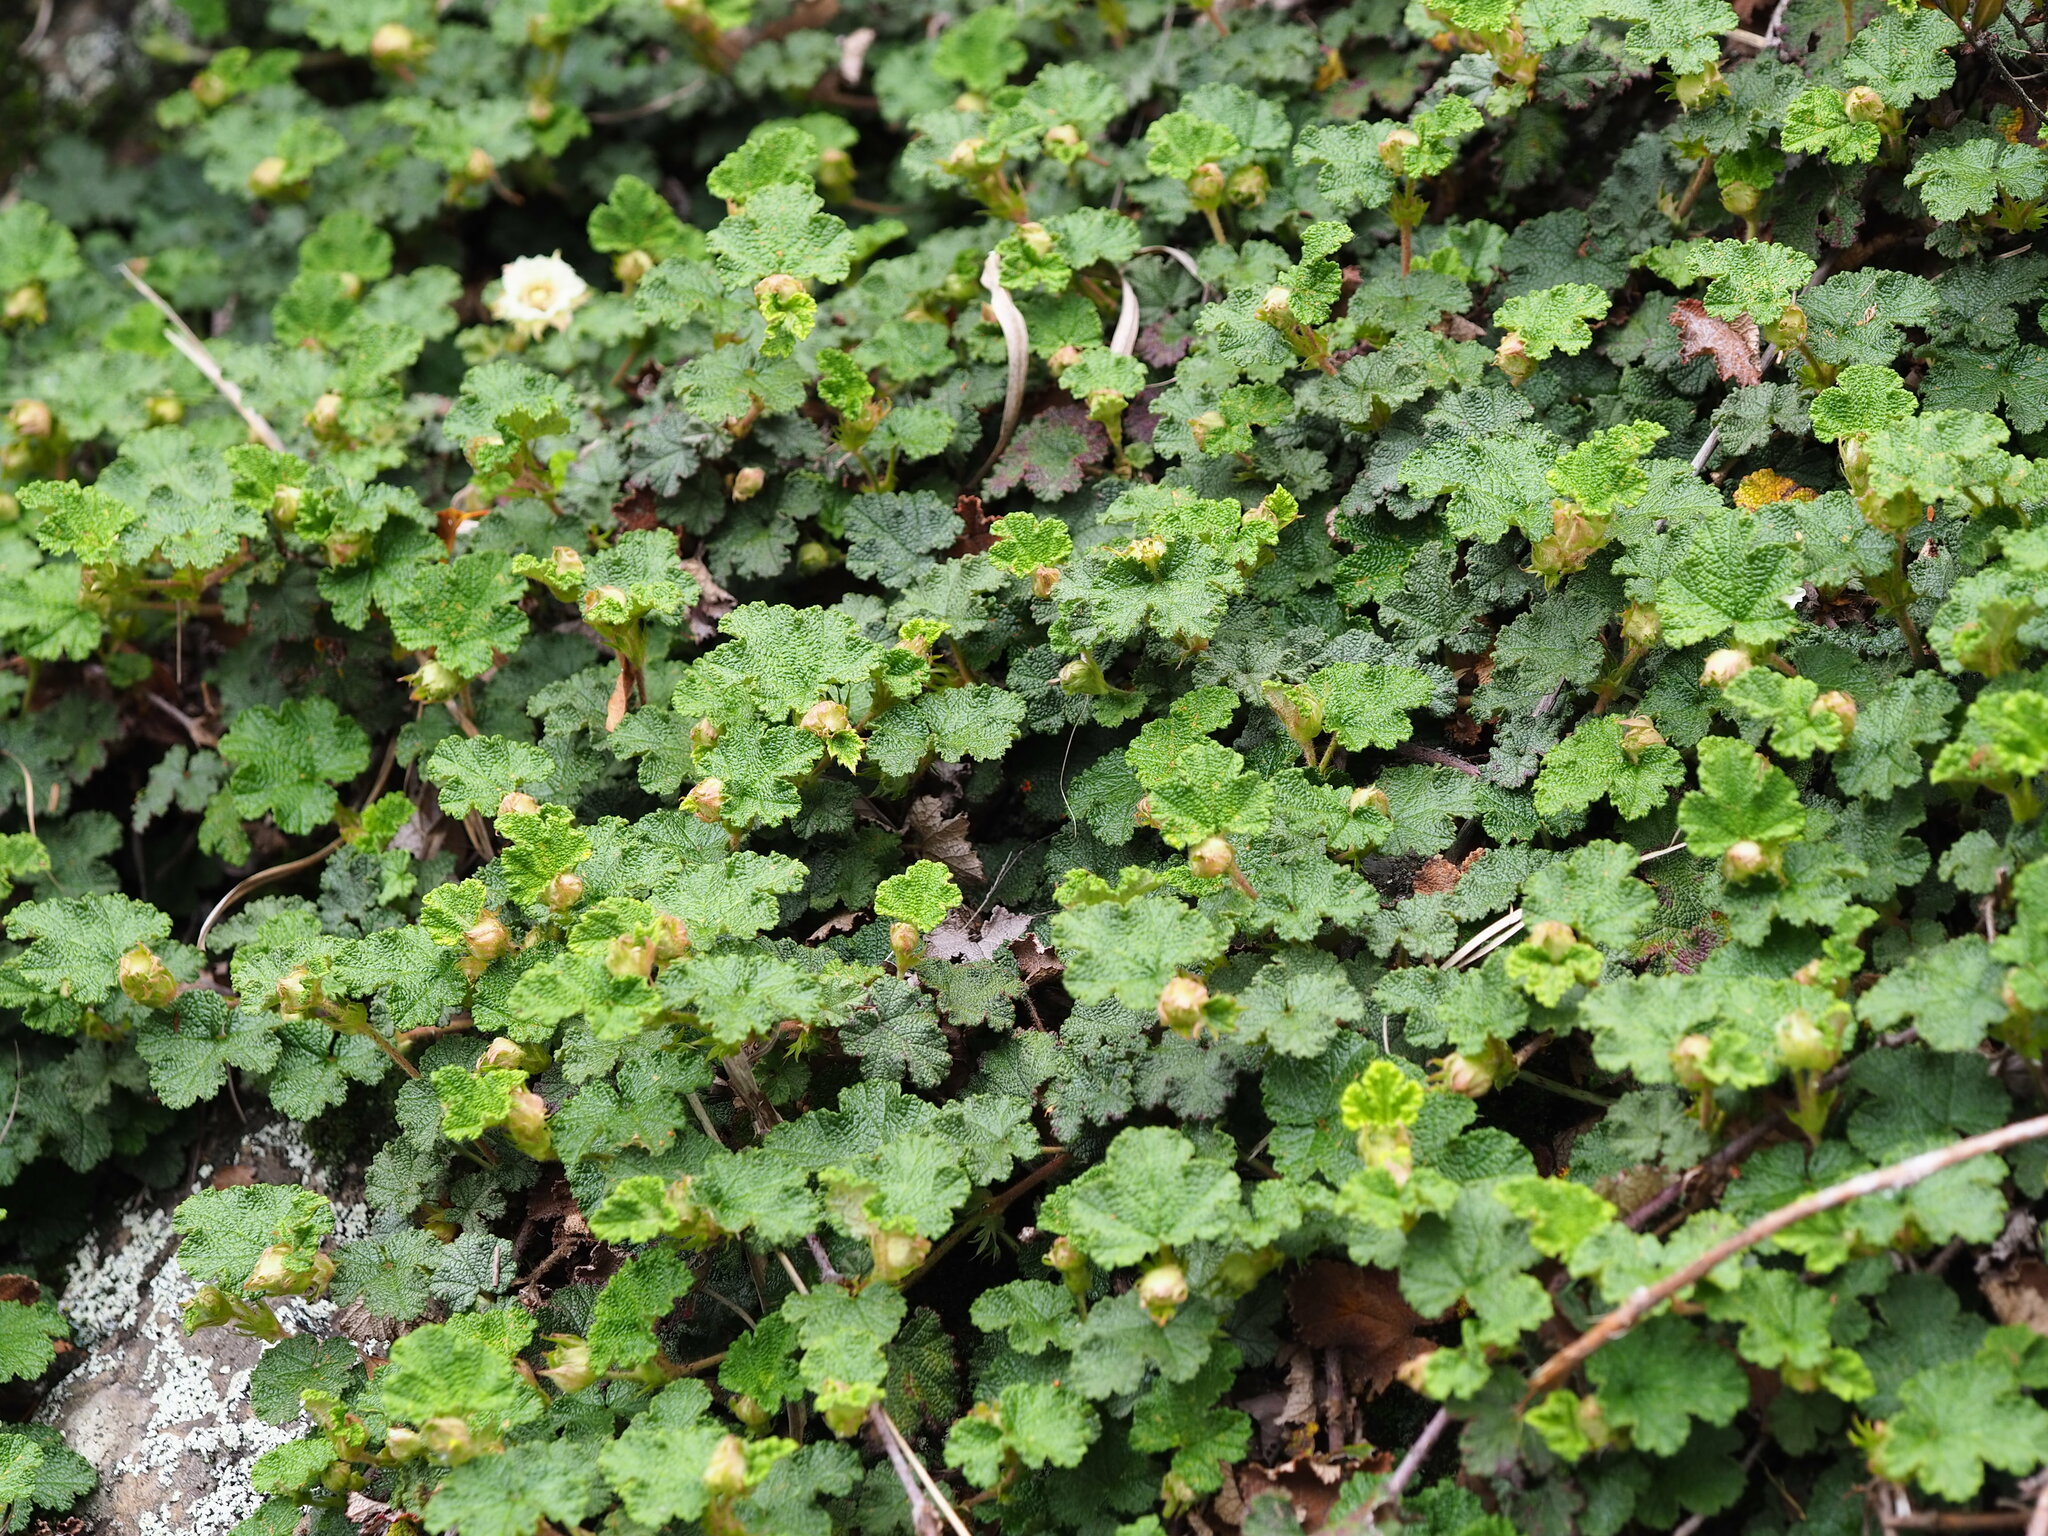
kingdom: Plantae
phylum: Tracheophyta
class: Magnoliopsida
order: Rosales
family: Rosaceae
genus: Rubus
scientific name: Rubus rolfei
